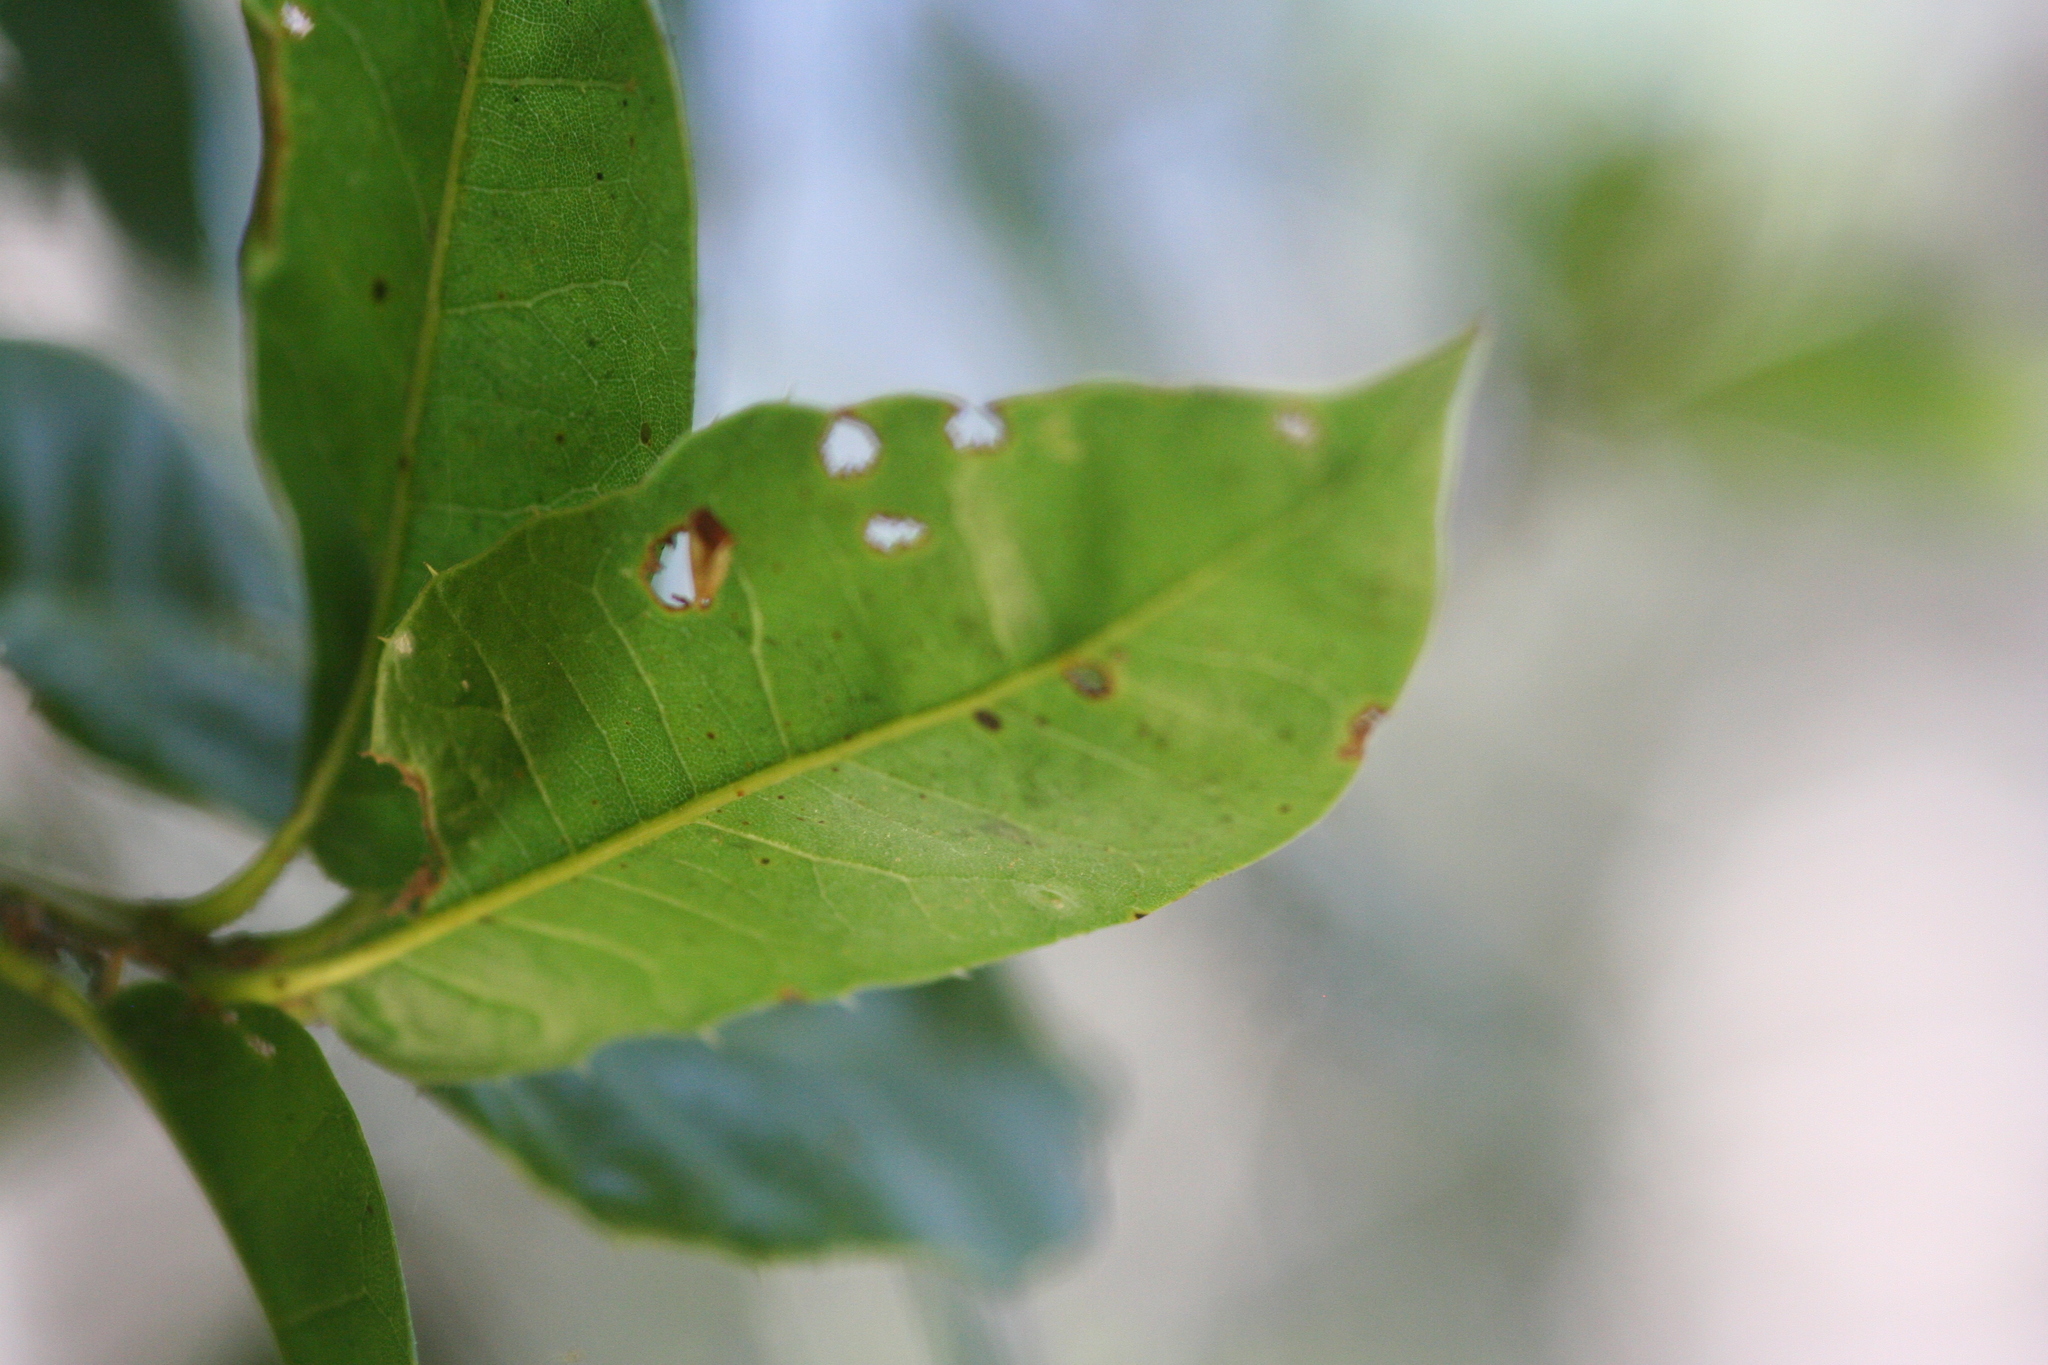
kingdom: Plantae
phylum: Tracheophyta
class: Magnoliopsida
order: Fagales
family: Fagaceae
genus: Quercus
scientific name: Quercus parvula
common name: Santa cruz island oak
